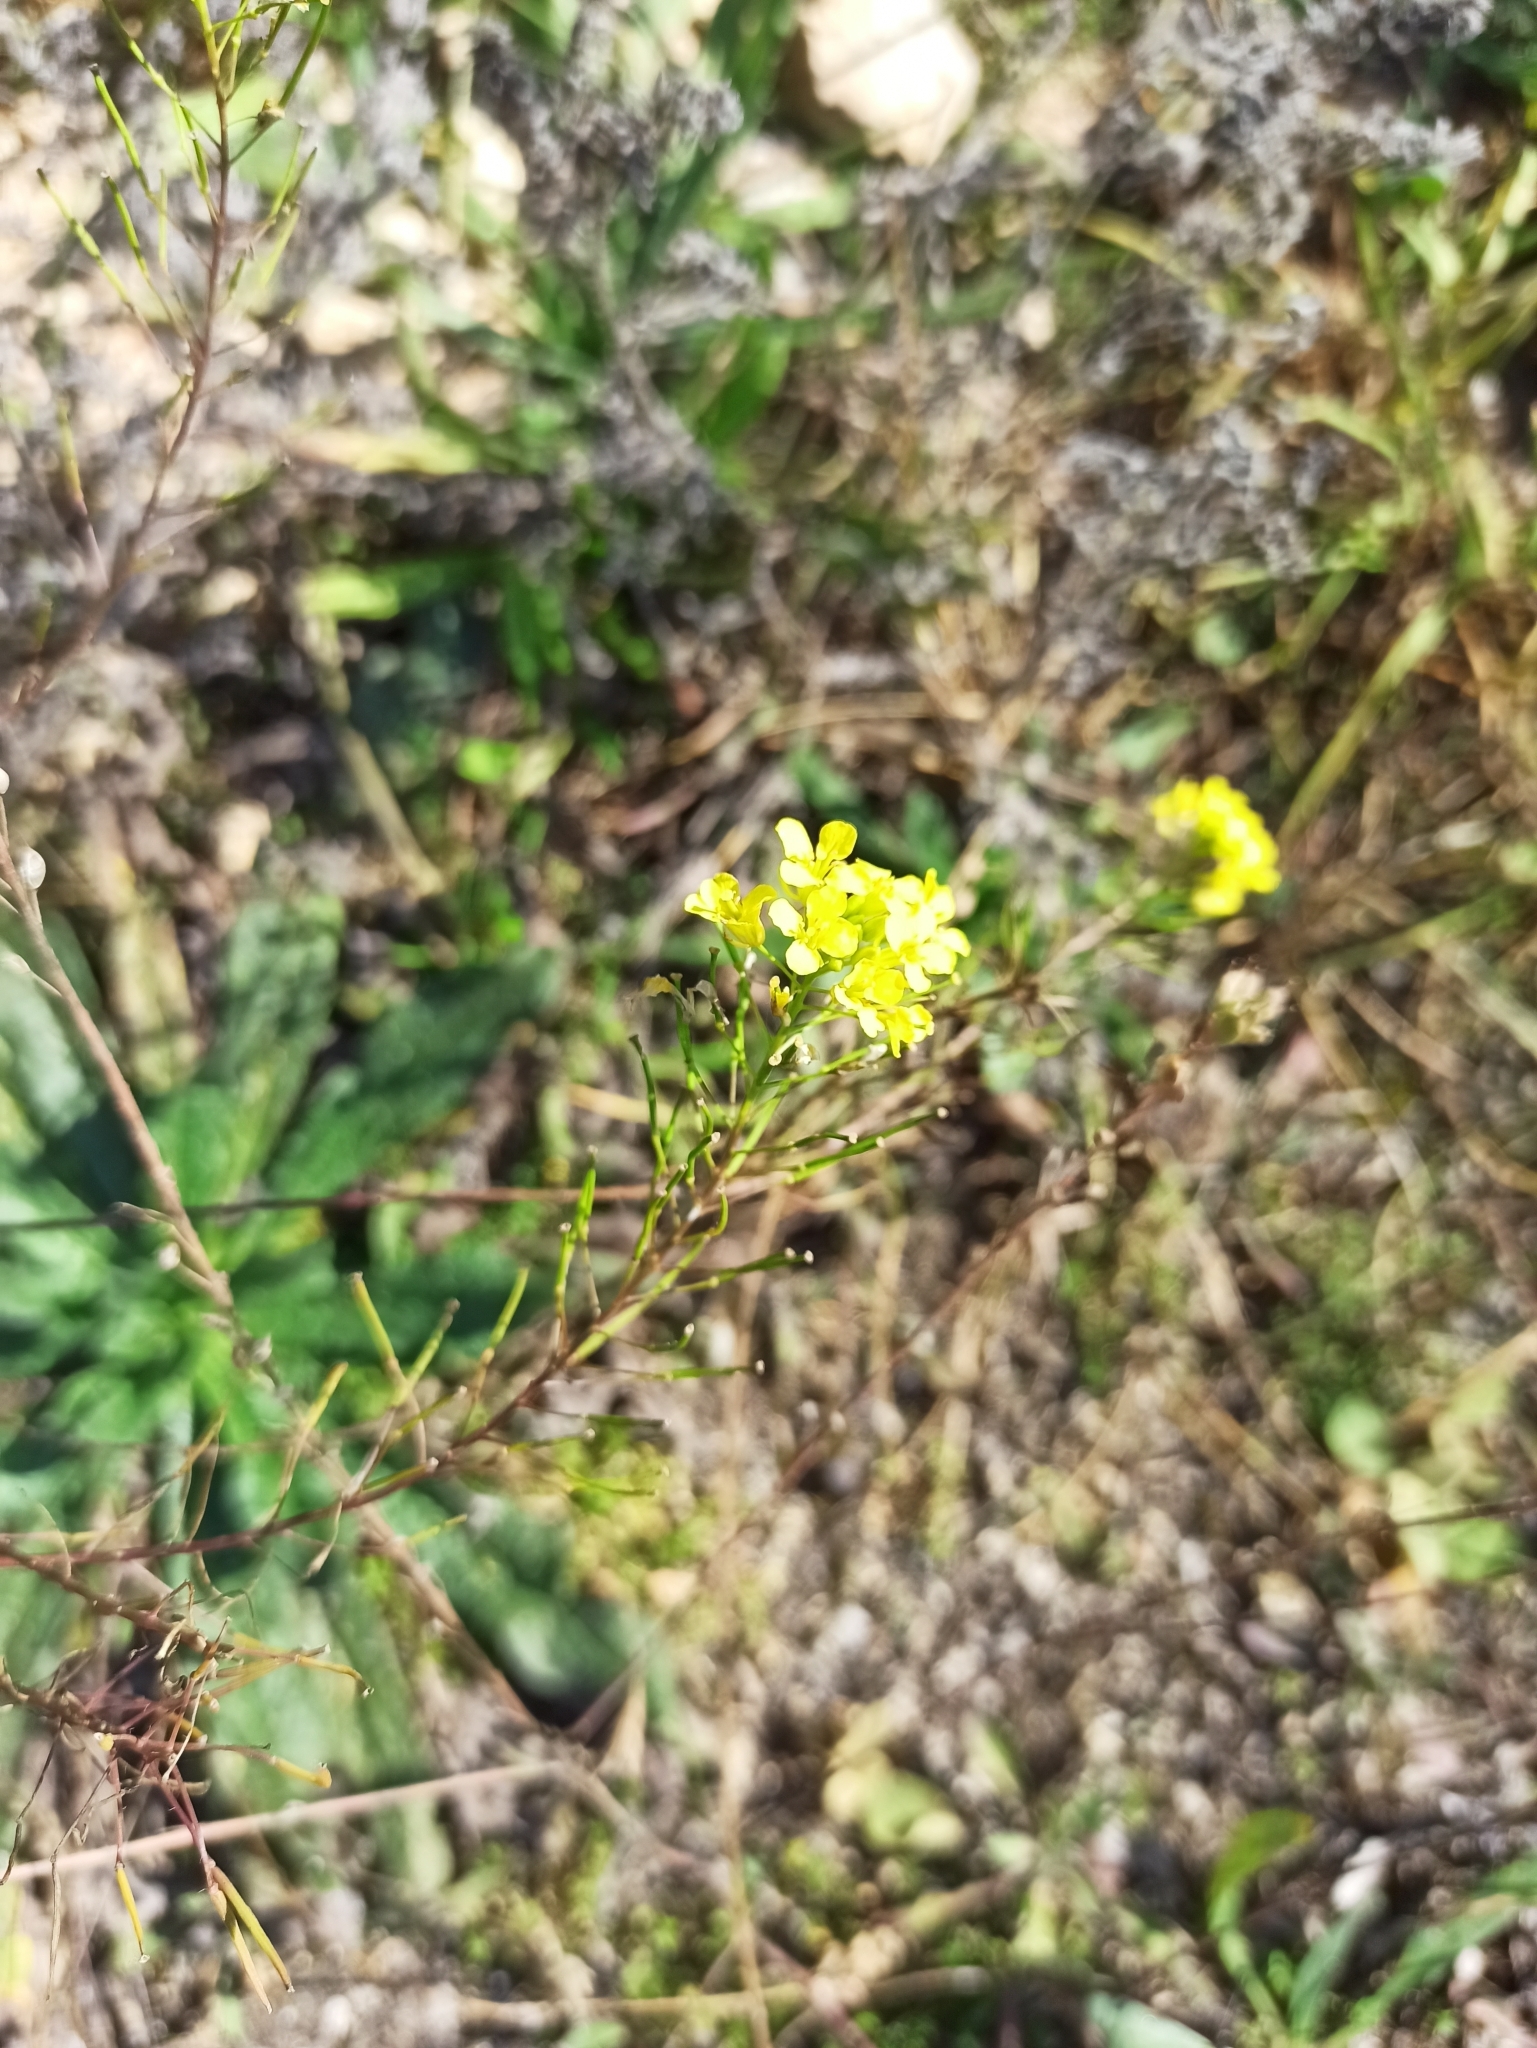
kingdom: Plantae
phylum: Tracheophyta
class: Magnoliopsida
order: Brassicales
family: Brassicaceae
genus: Sisymbrium
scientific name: Sisymbrium loeselii
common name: False london-rocket
